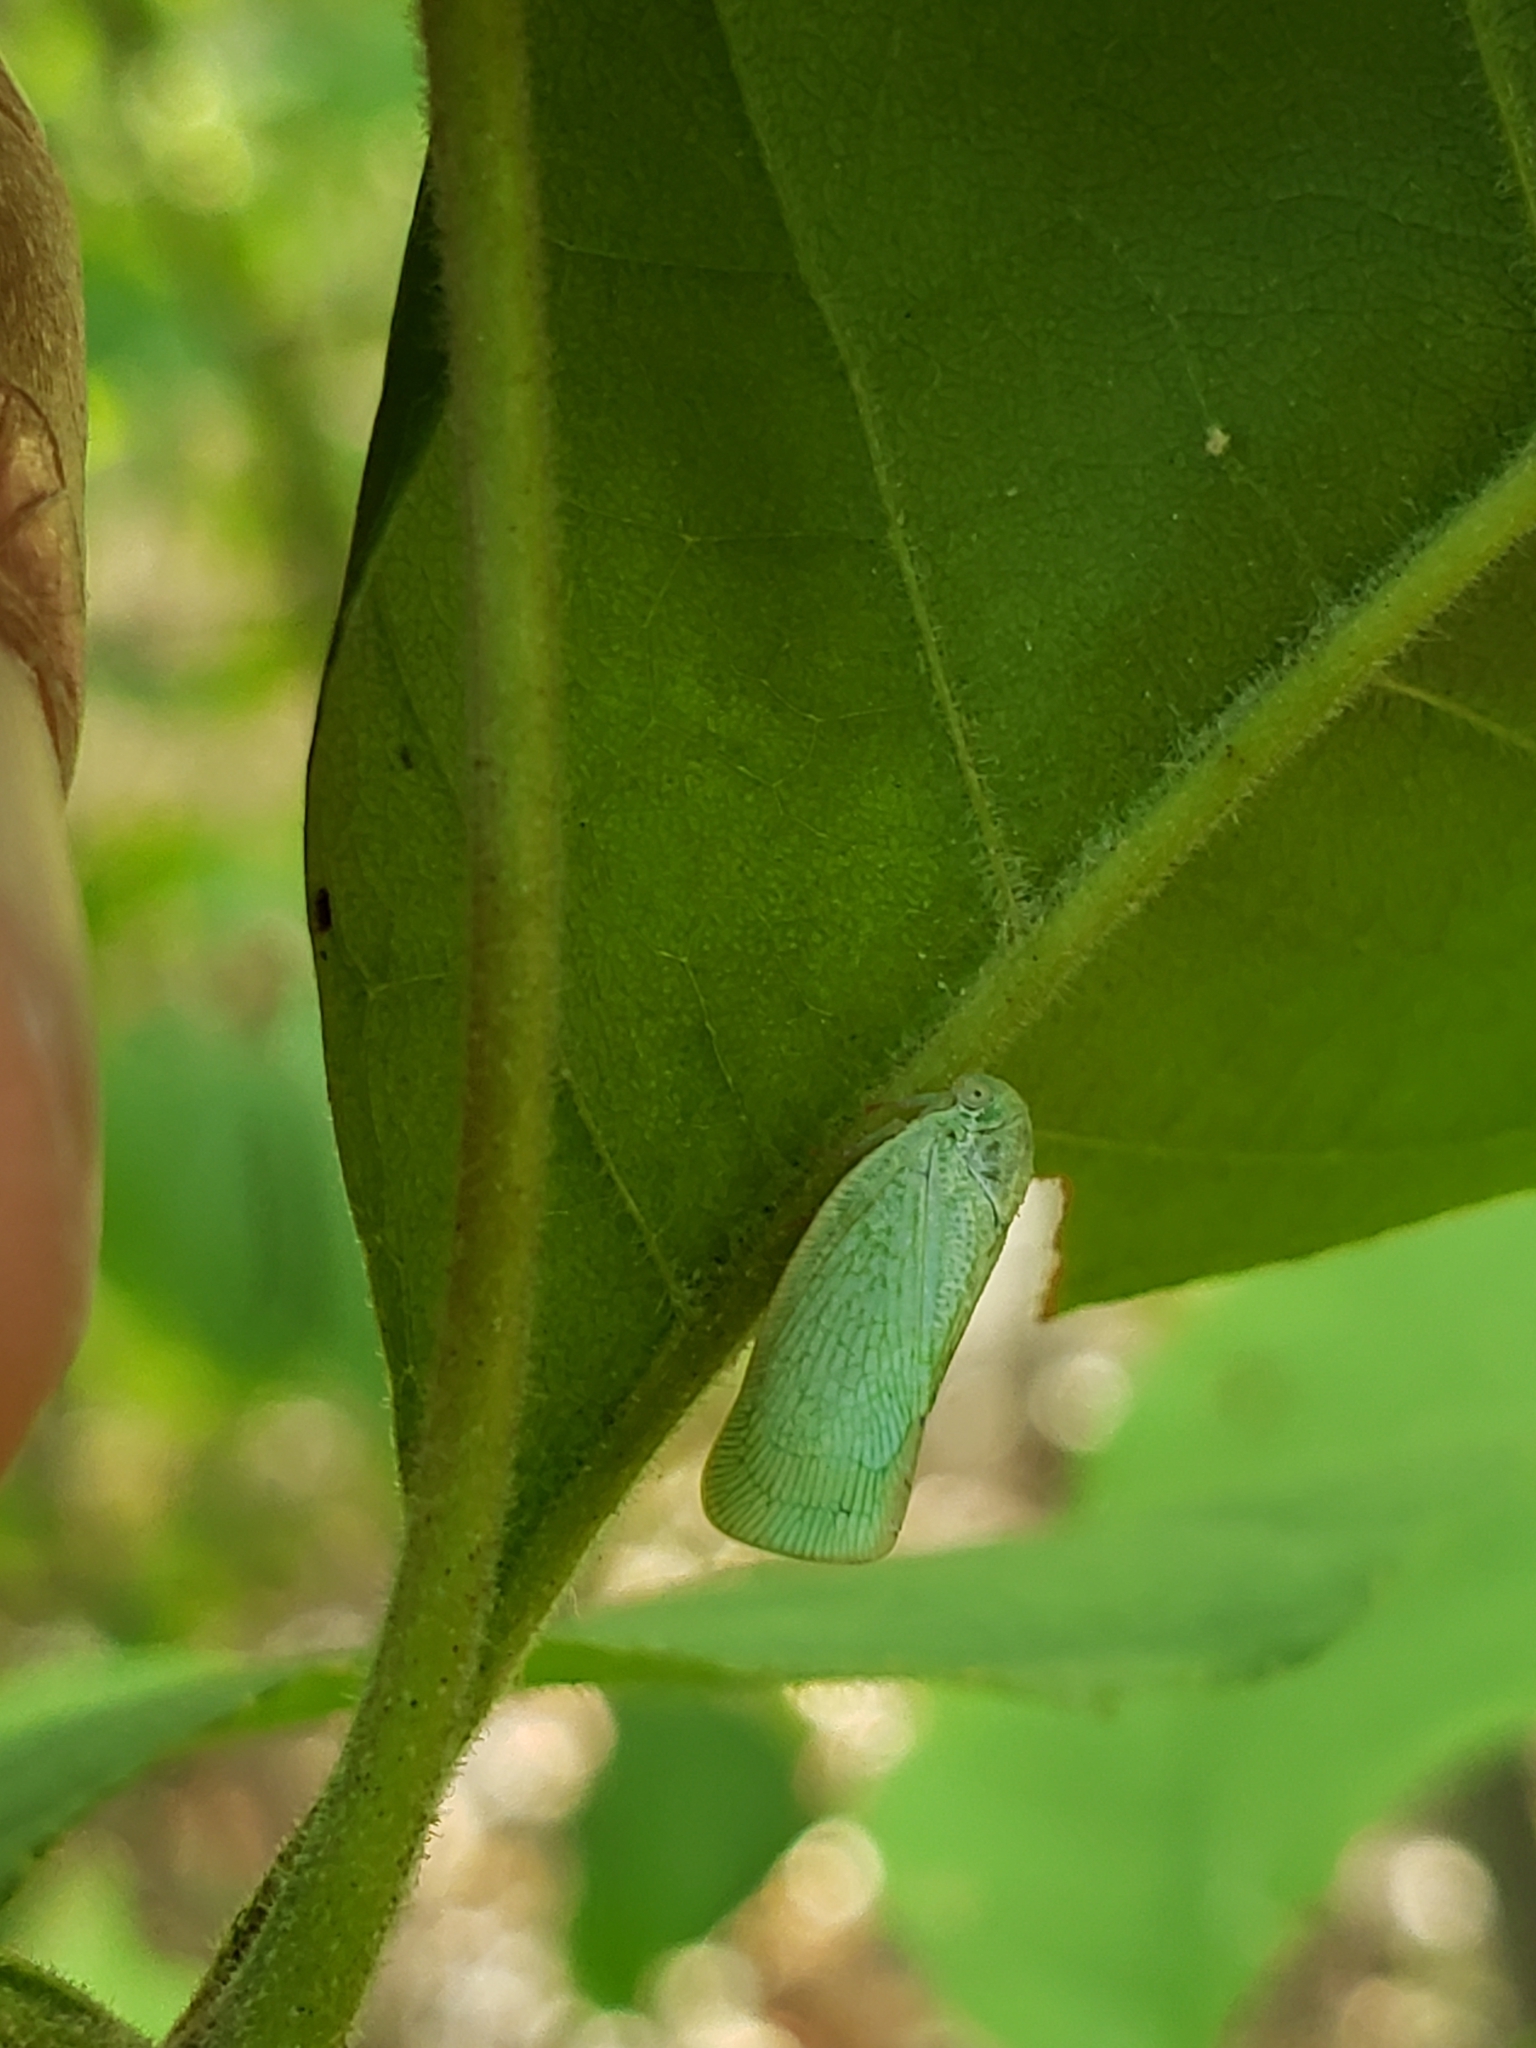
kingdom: Animalia
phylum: Arthropoda
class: Insecta
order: Hemiptera
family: Flatidae
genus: Flatormenis
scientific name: Flatormenis proxima
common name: Northern flatid planthopper
